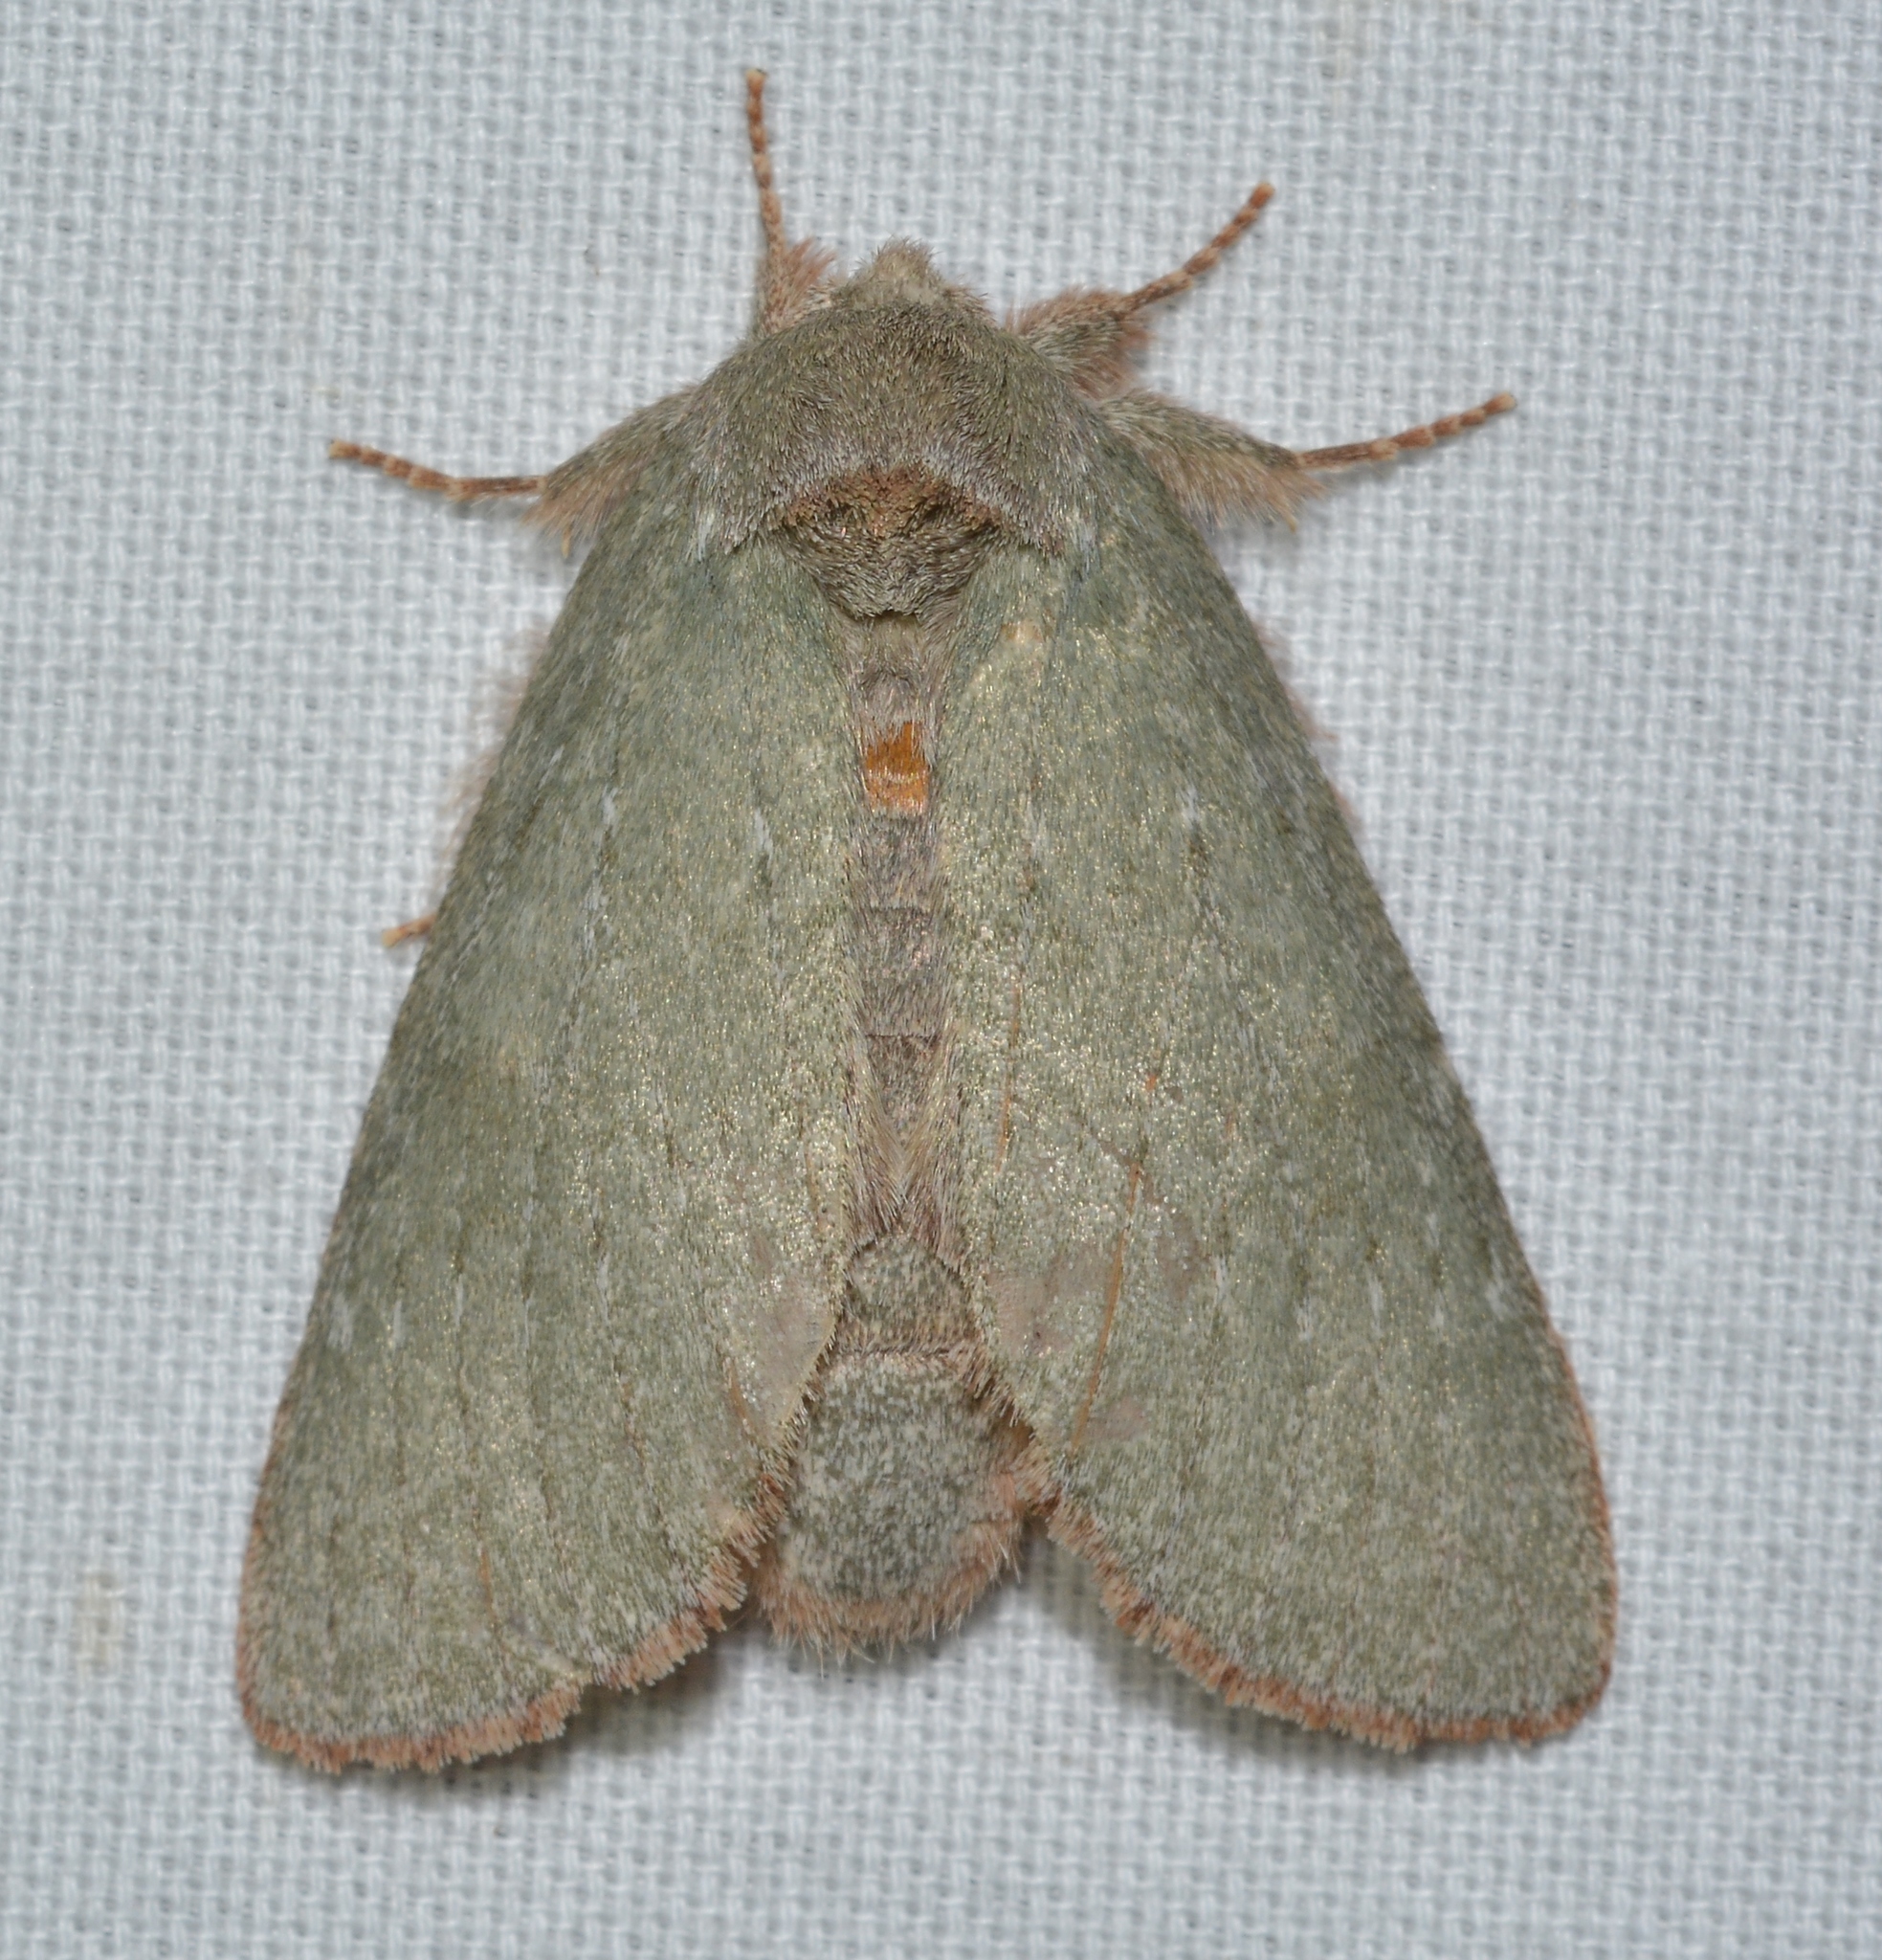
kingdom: Animalia
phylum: Arthropoda
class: Insecta
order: Lepidoptera
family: Notodontidae
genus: Misogada
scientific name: Misogada unicolor
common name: Drab prominent
